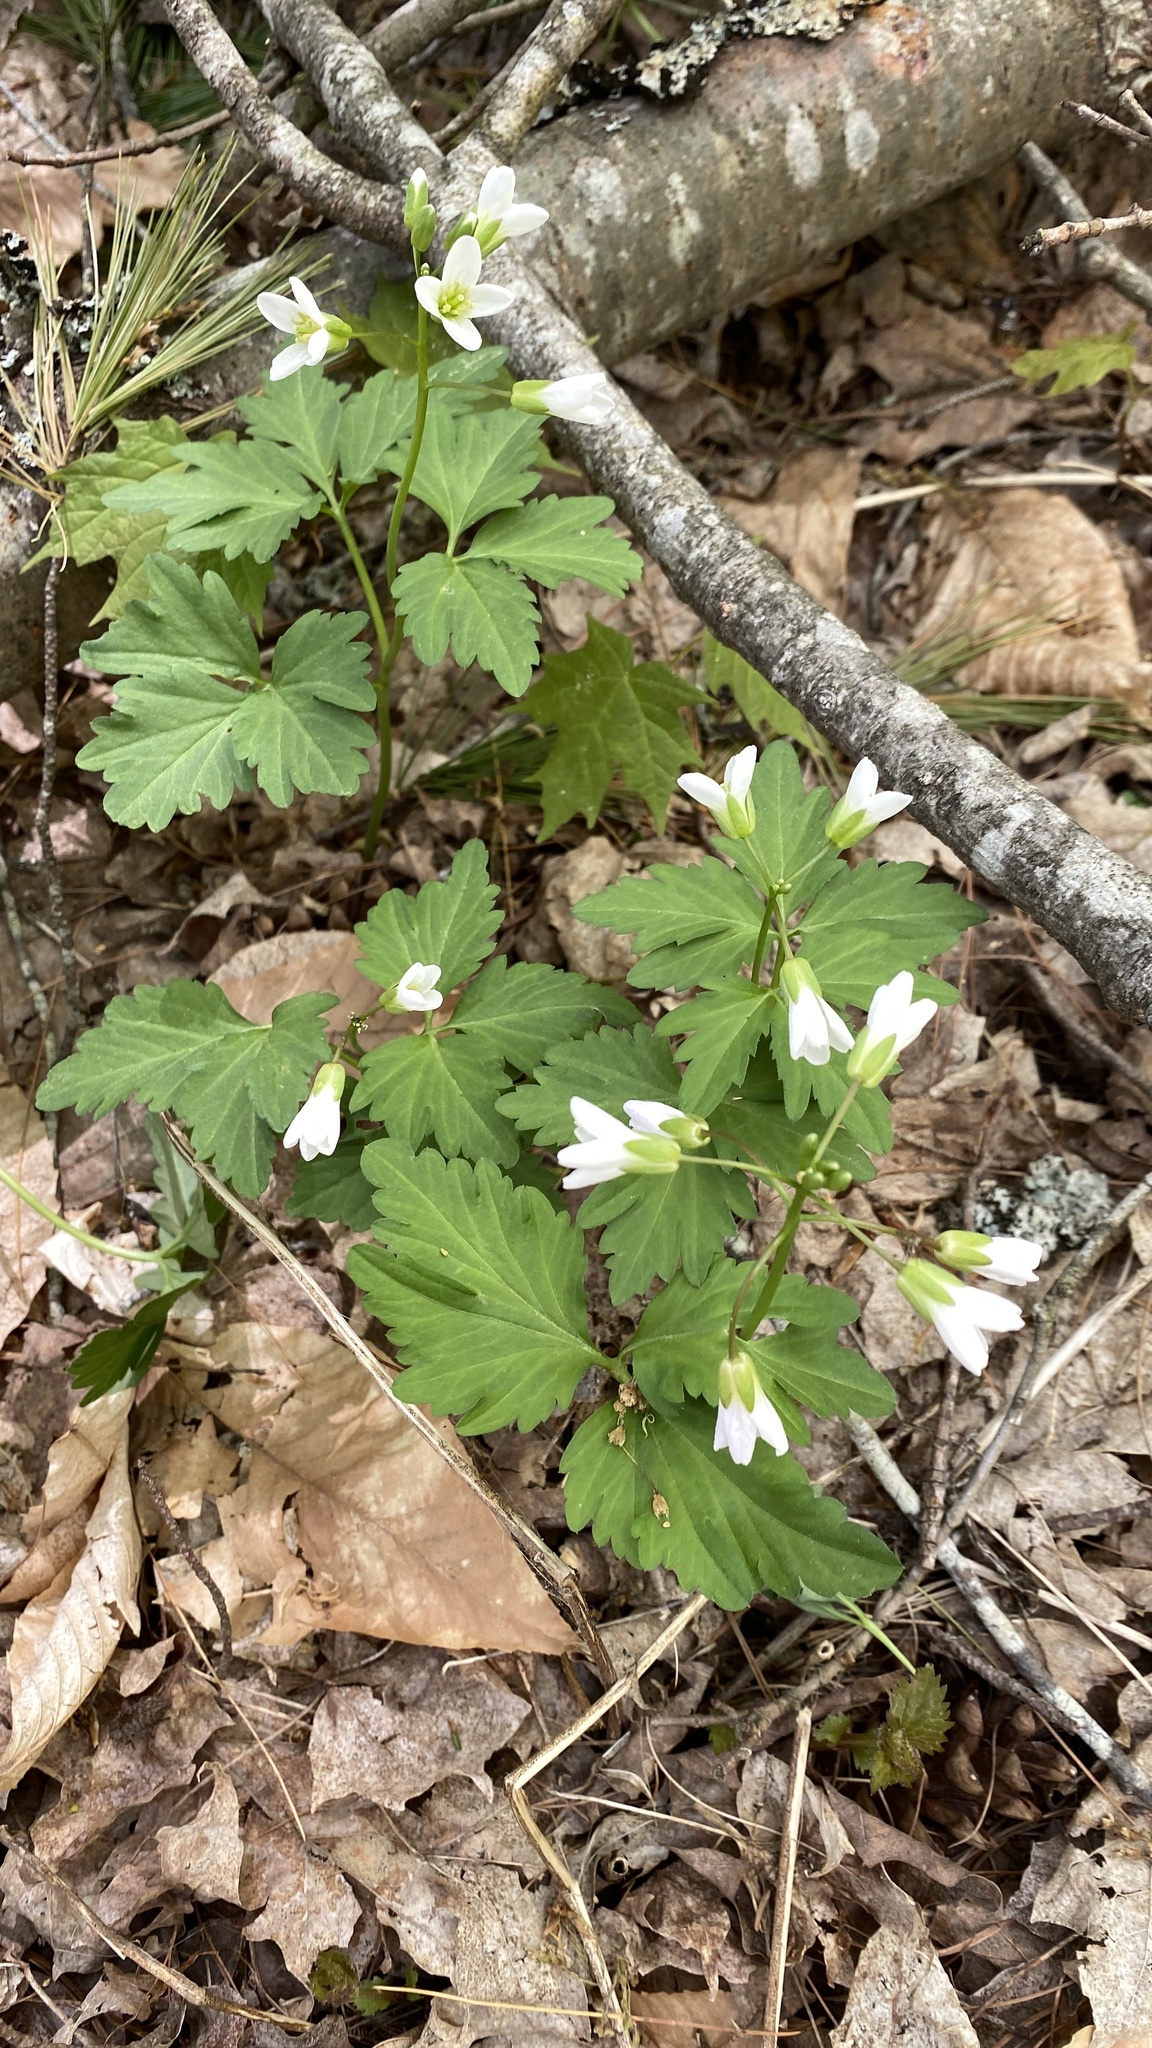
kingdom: Plantae
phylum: Tracheophyta
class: Magnoliopsida
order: Brassicales
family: Brassicaceae
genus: Cardamine
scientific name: Cardamine diphylla
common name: Broad-leaved toothwort
